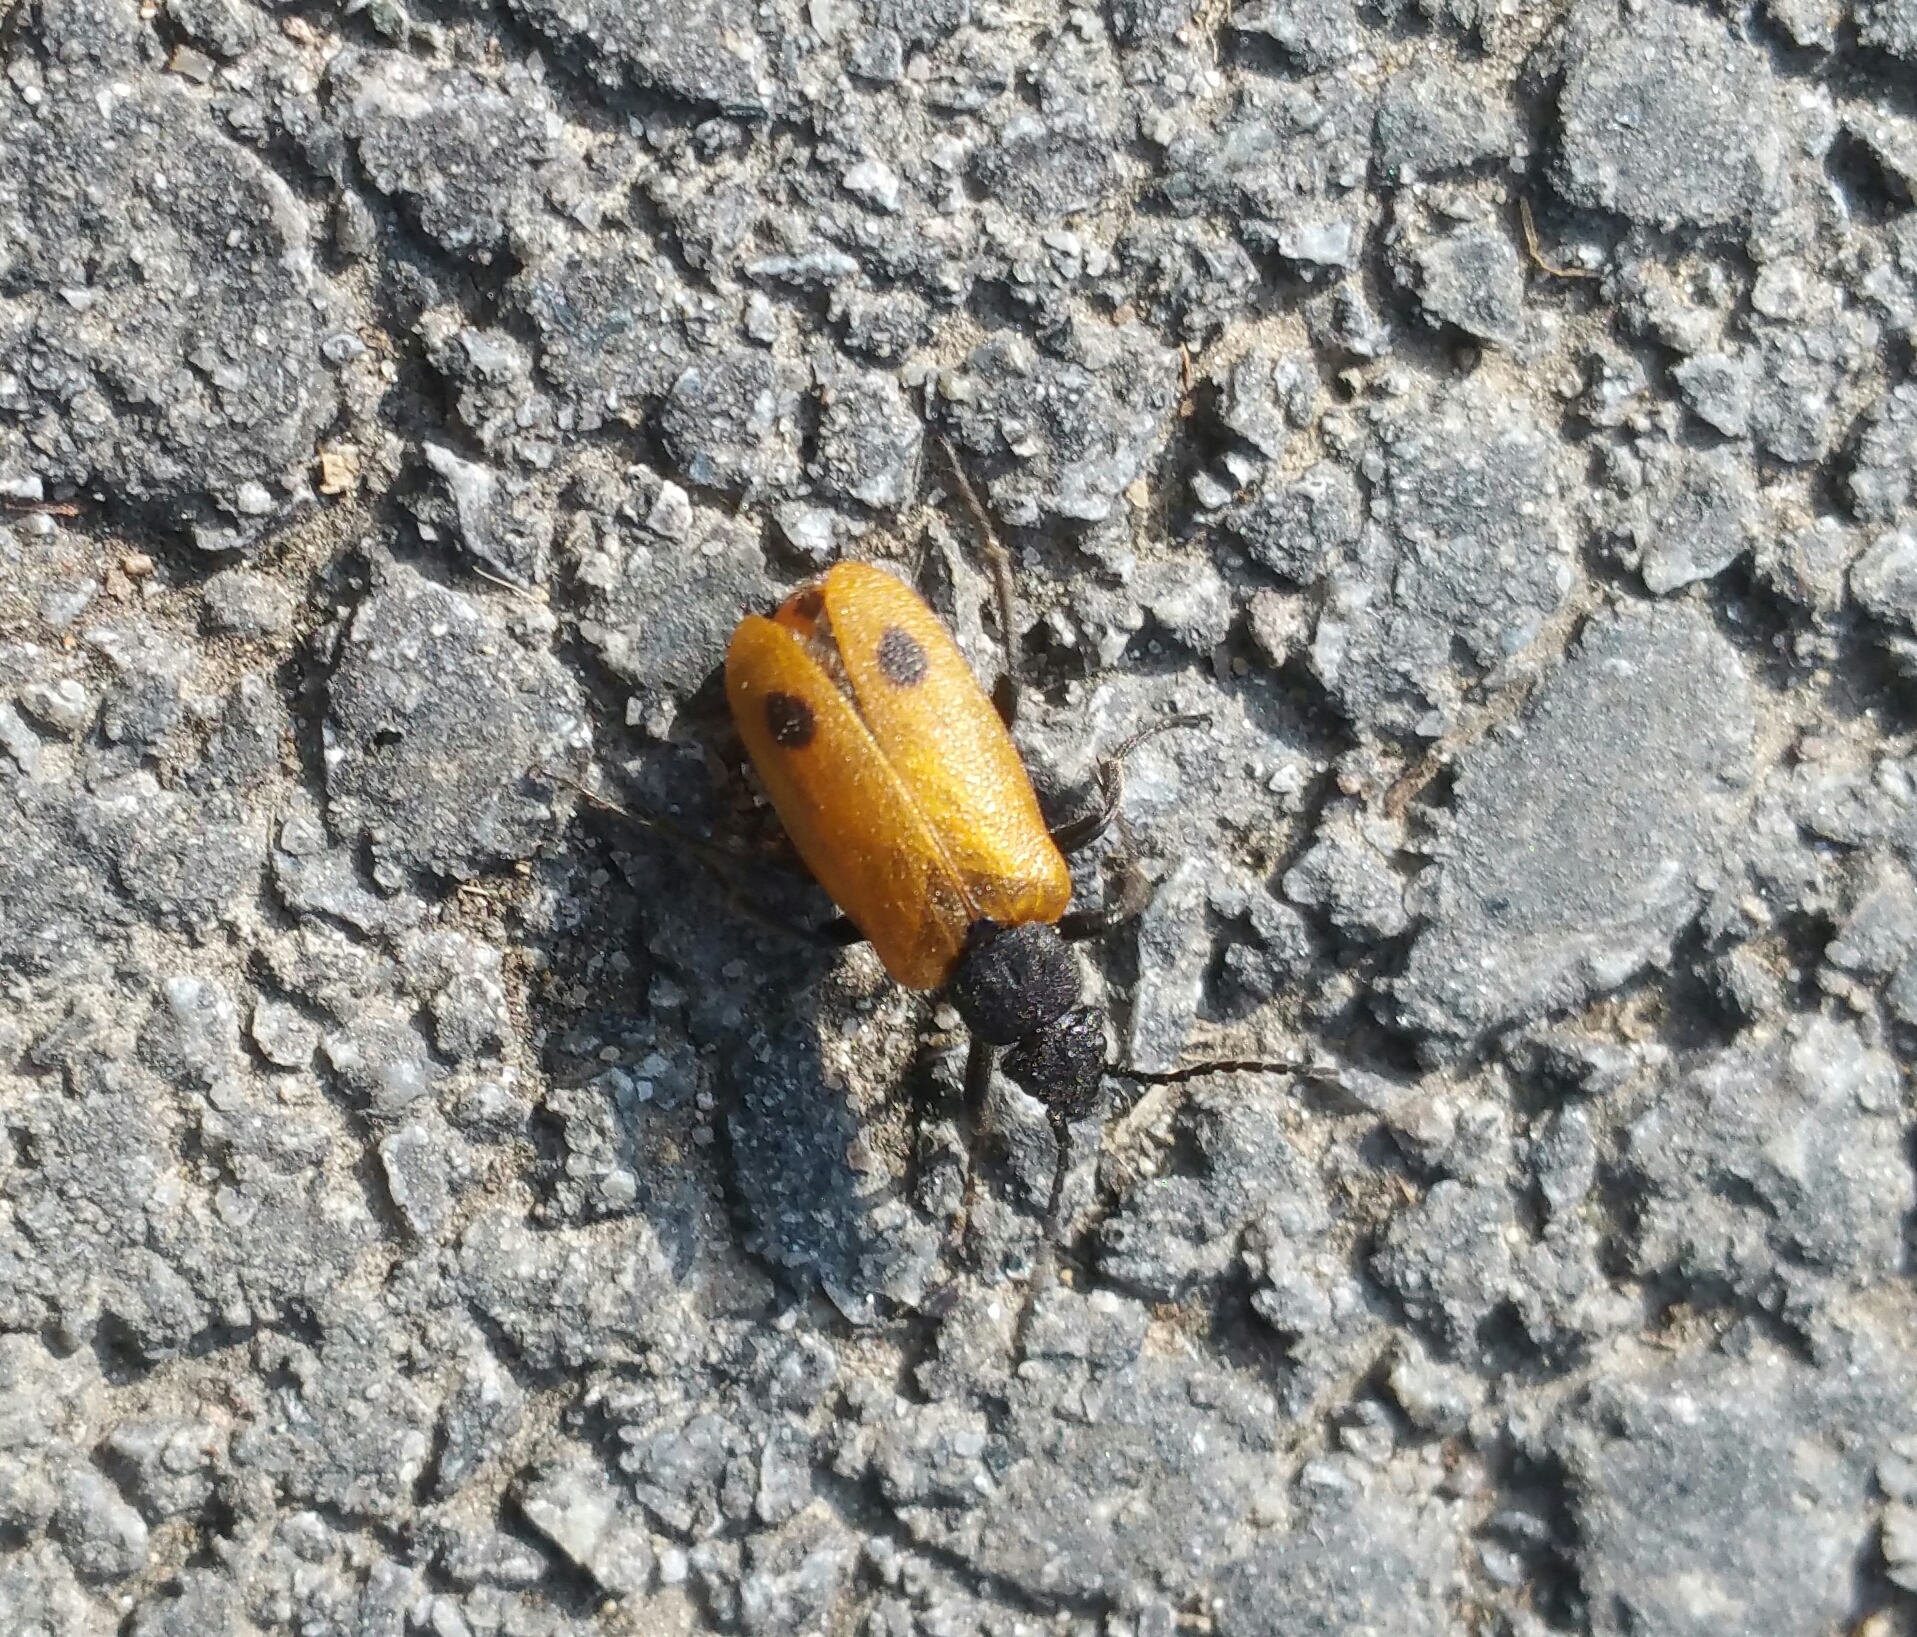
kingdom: Animalia
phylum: Arthropoda
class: Insecta
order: Coleoptera
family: Meloidae
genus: Apalus
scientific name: Apalus bimaculatus
